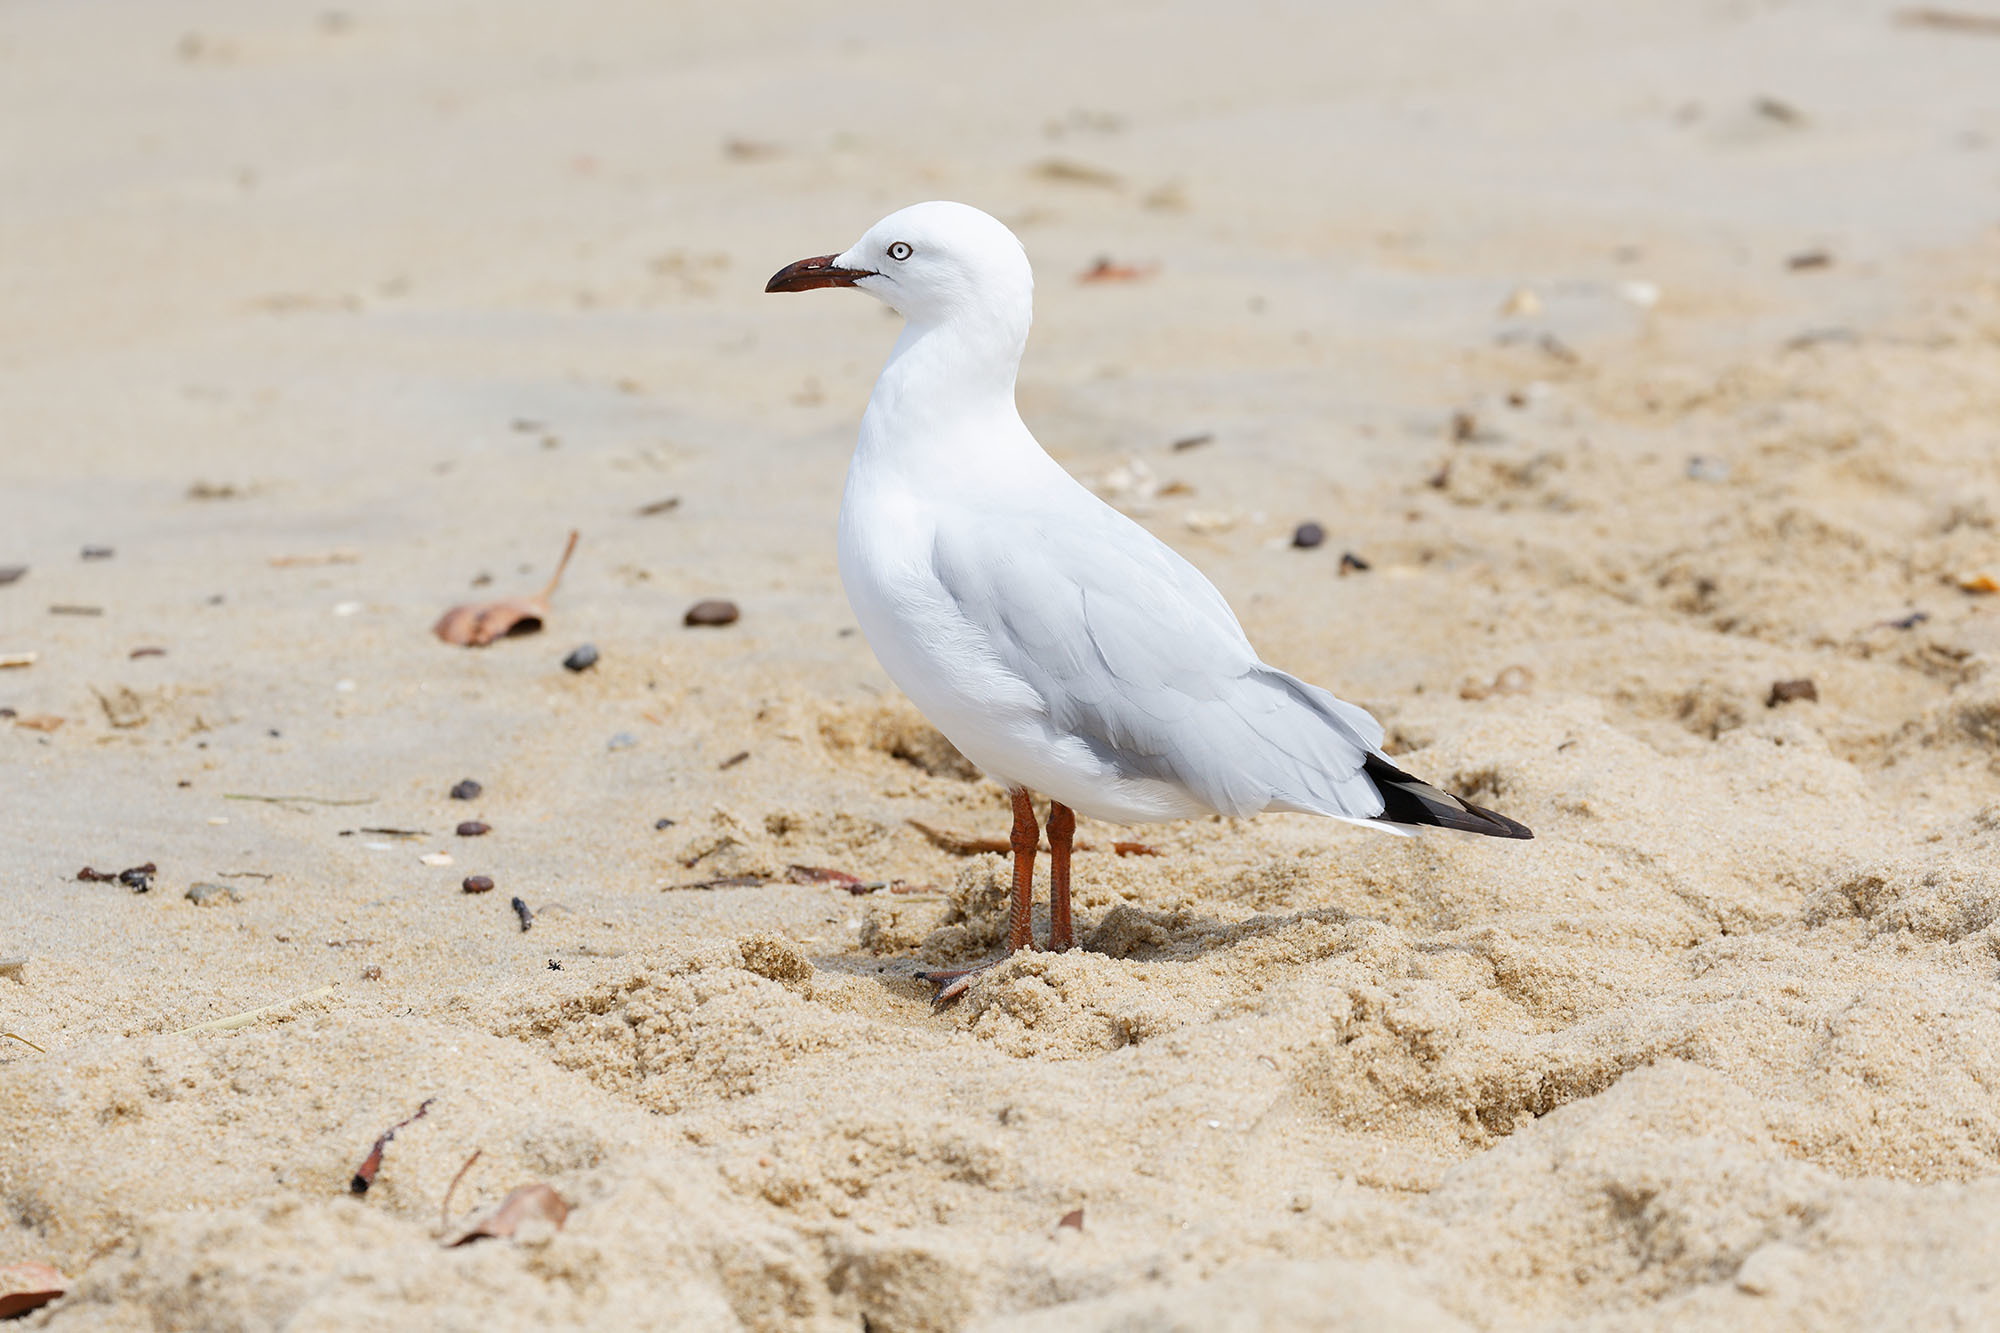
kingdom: Animalia
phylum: Chordata
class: Aves
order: Charadriiformes
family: Laridae
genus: Chroicocephalus
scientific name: Chroicocephalus novaehollandiae
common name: Silver gull
